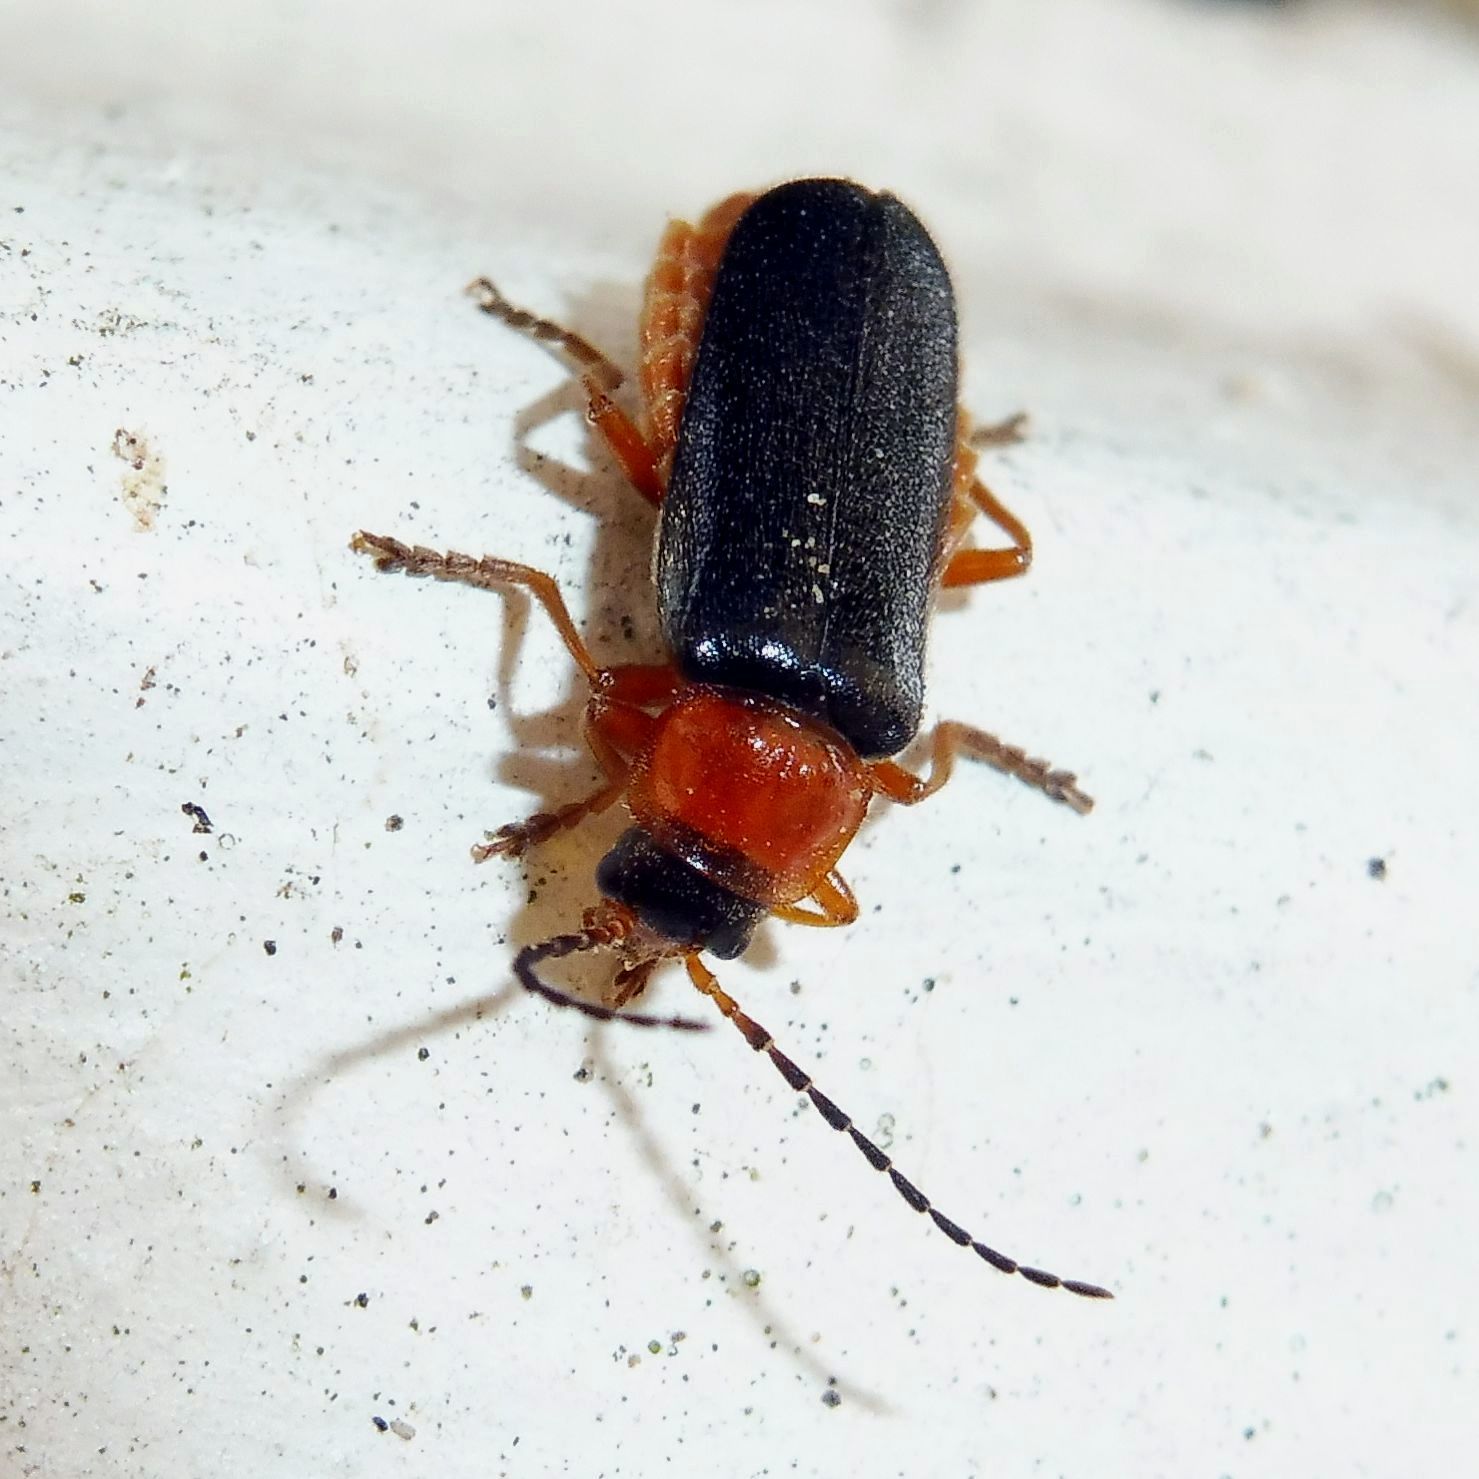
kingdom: Animalia
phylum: Arthropoda
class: Insecta
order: Coleoptera
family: Cantharidae
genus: Cantharis
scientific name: Cantharis flavilabris
